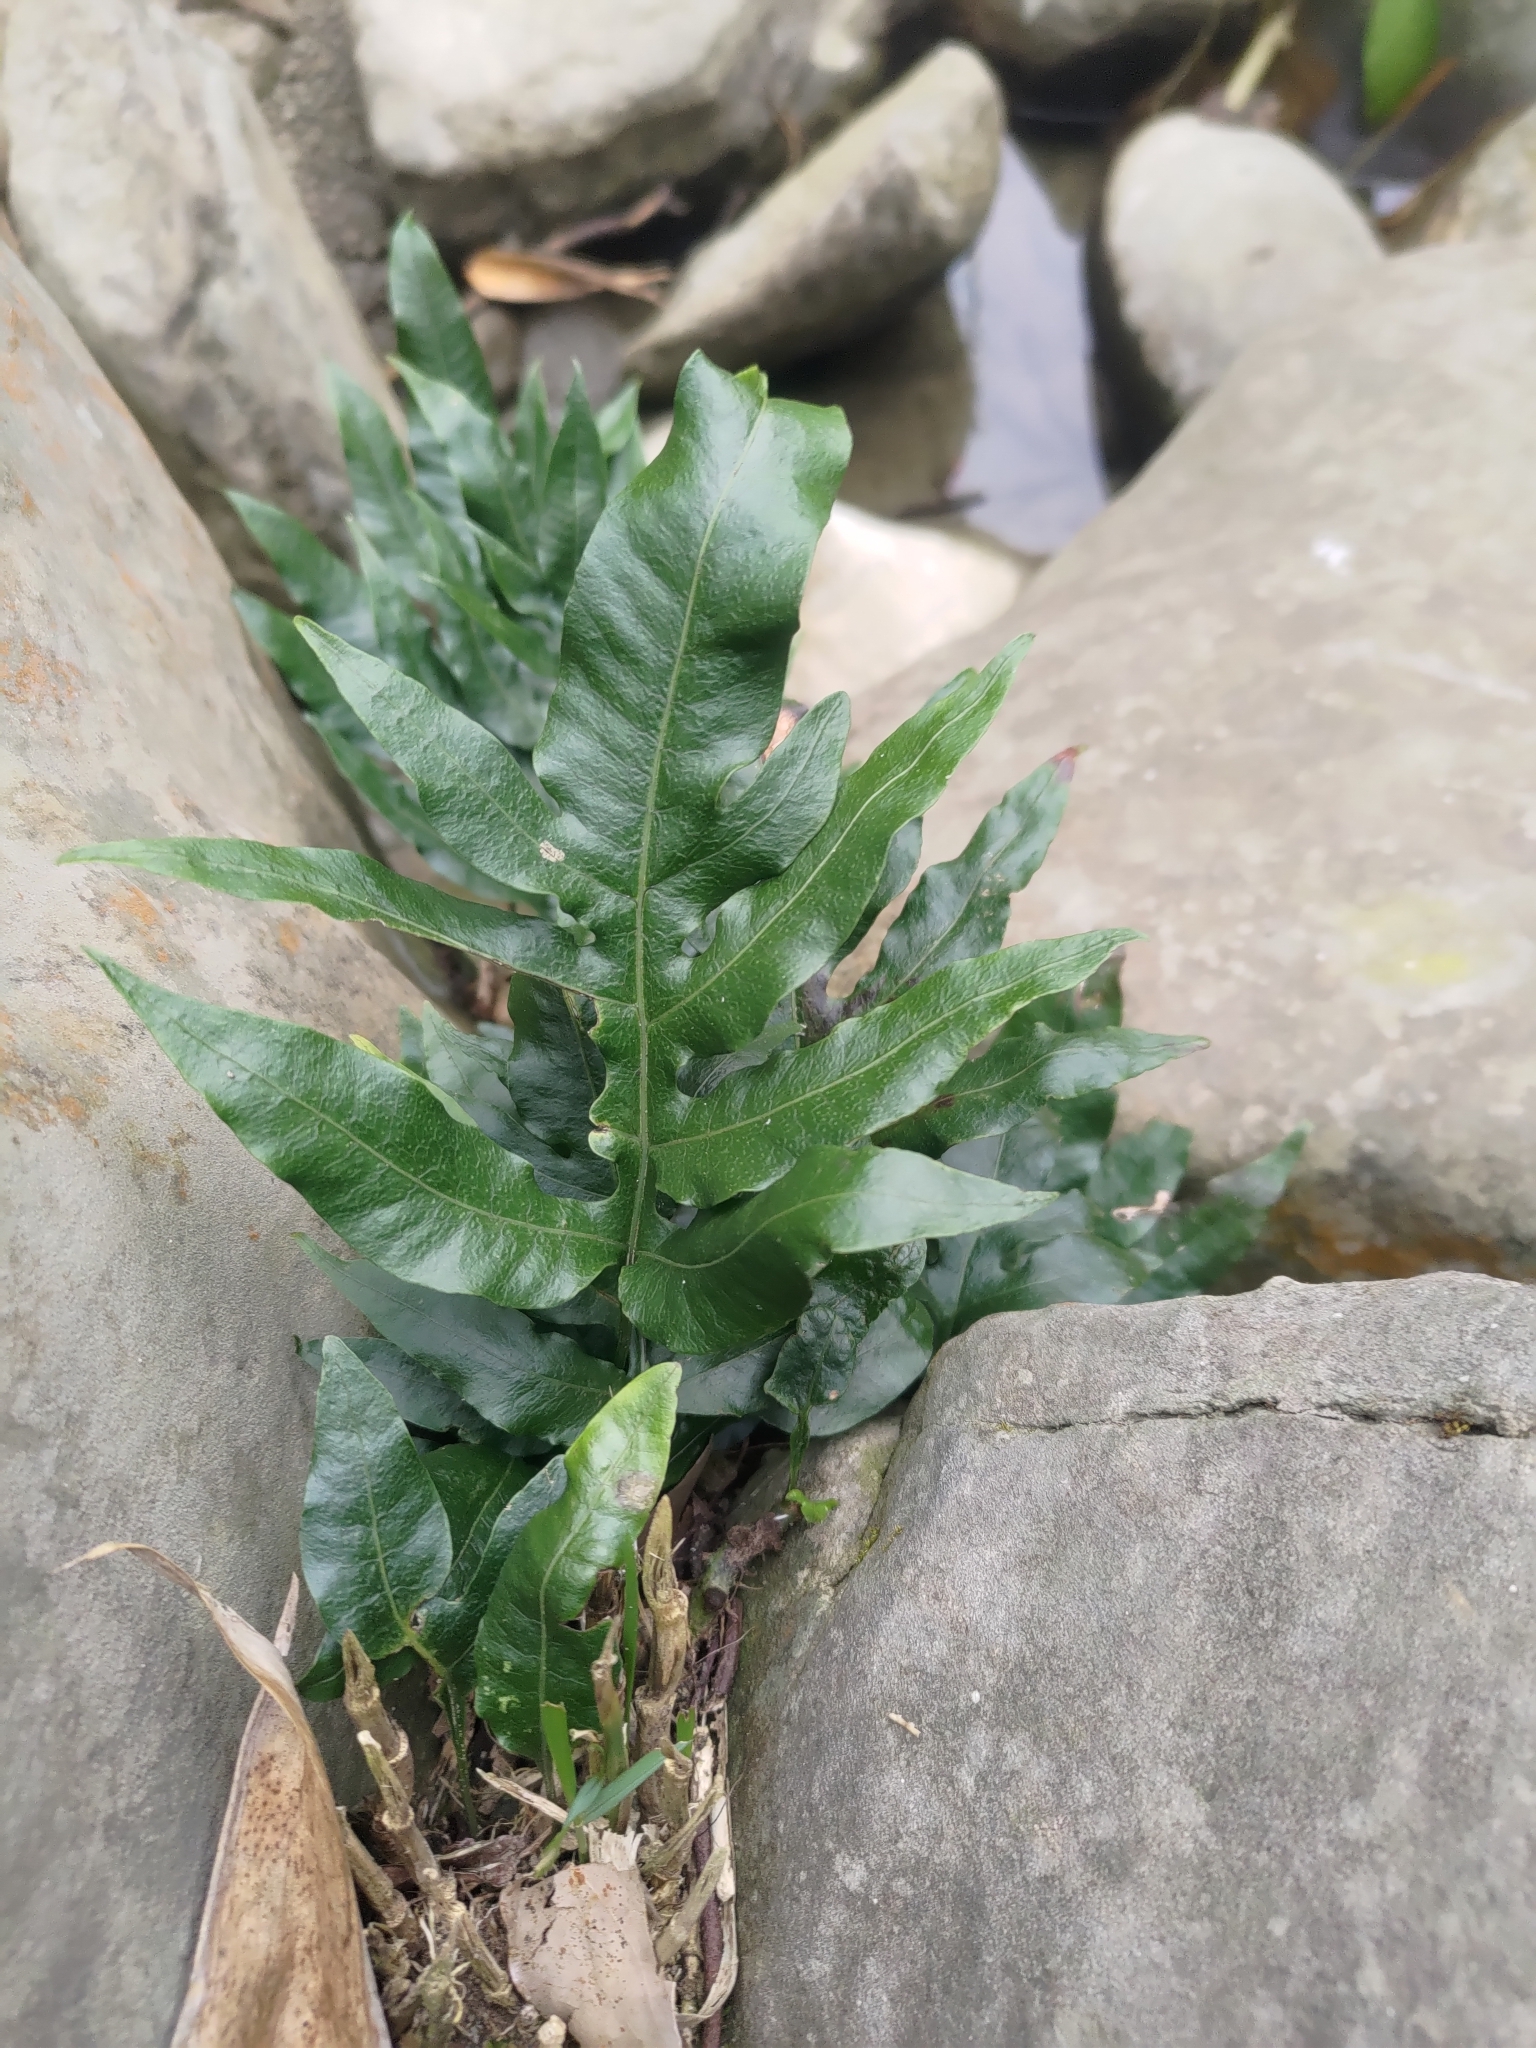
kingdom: Plantae
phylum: Tracheophyta
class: Polypodiopsida
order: Polypodiales
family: Polypodiaceae
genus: Leptochilus
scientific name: Leptochilus ellipticus
